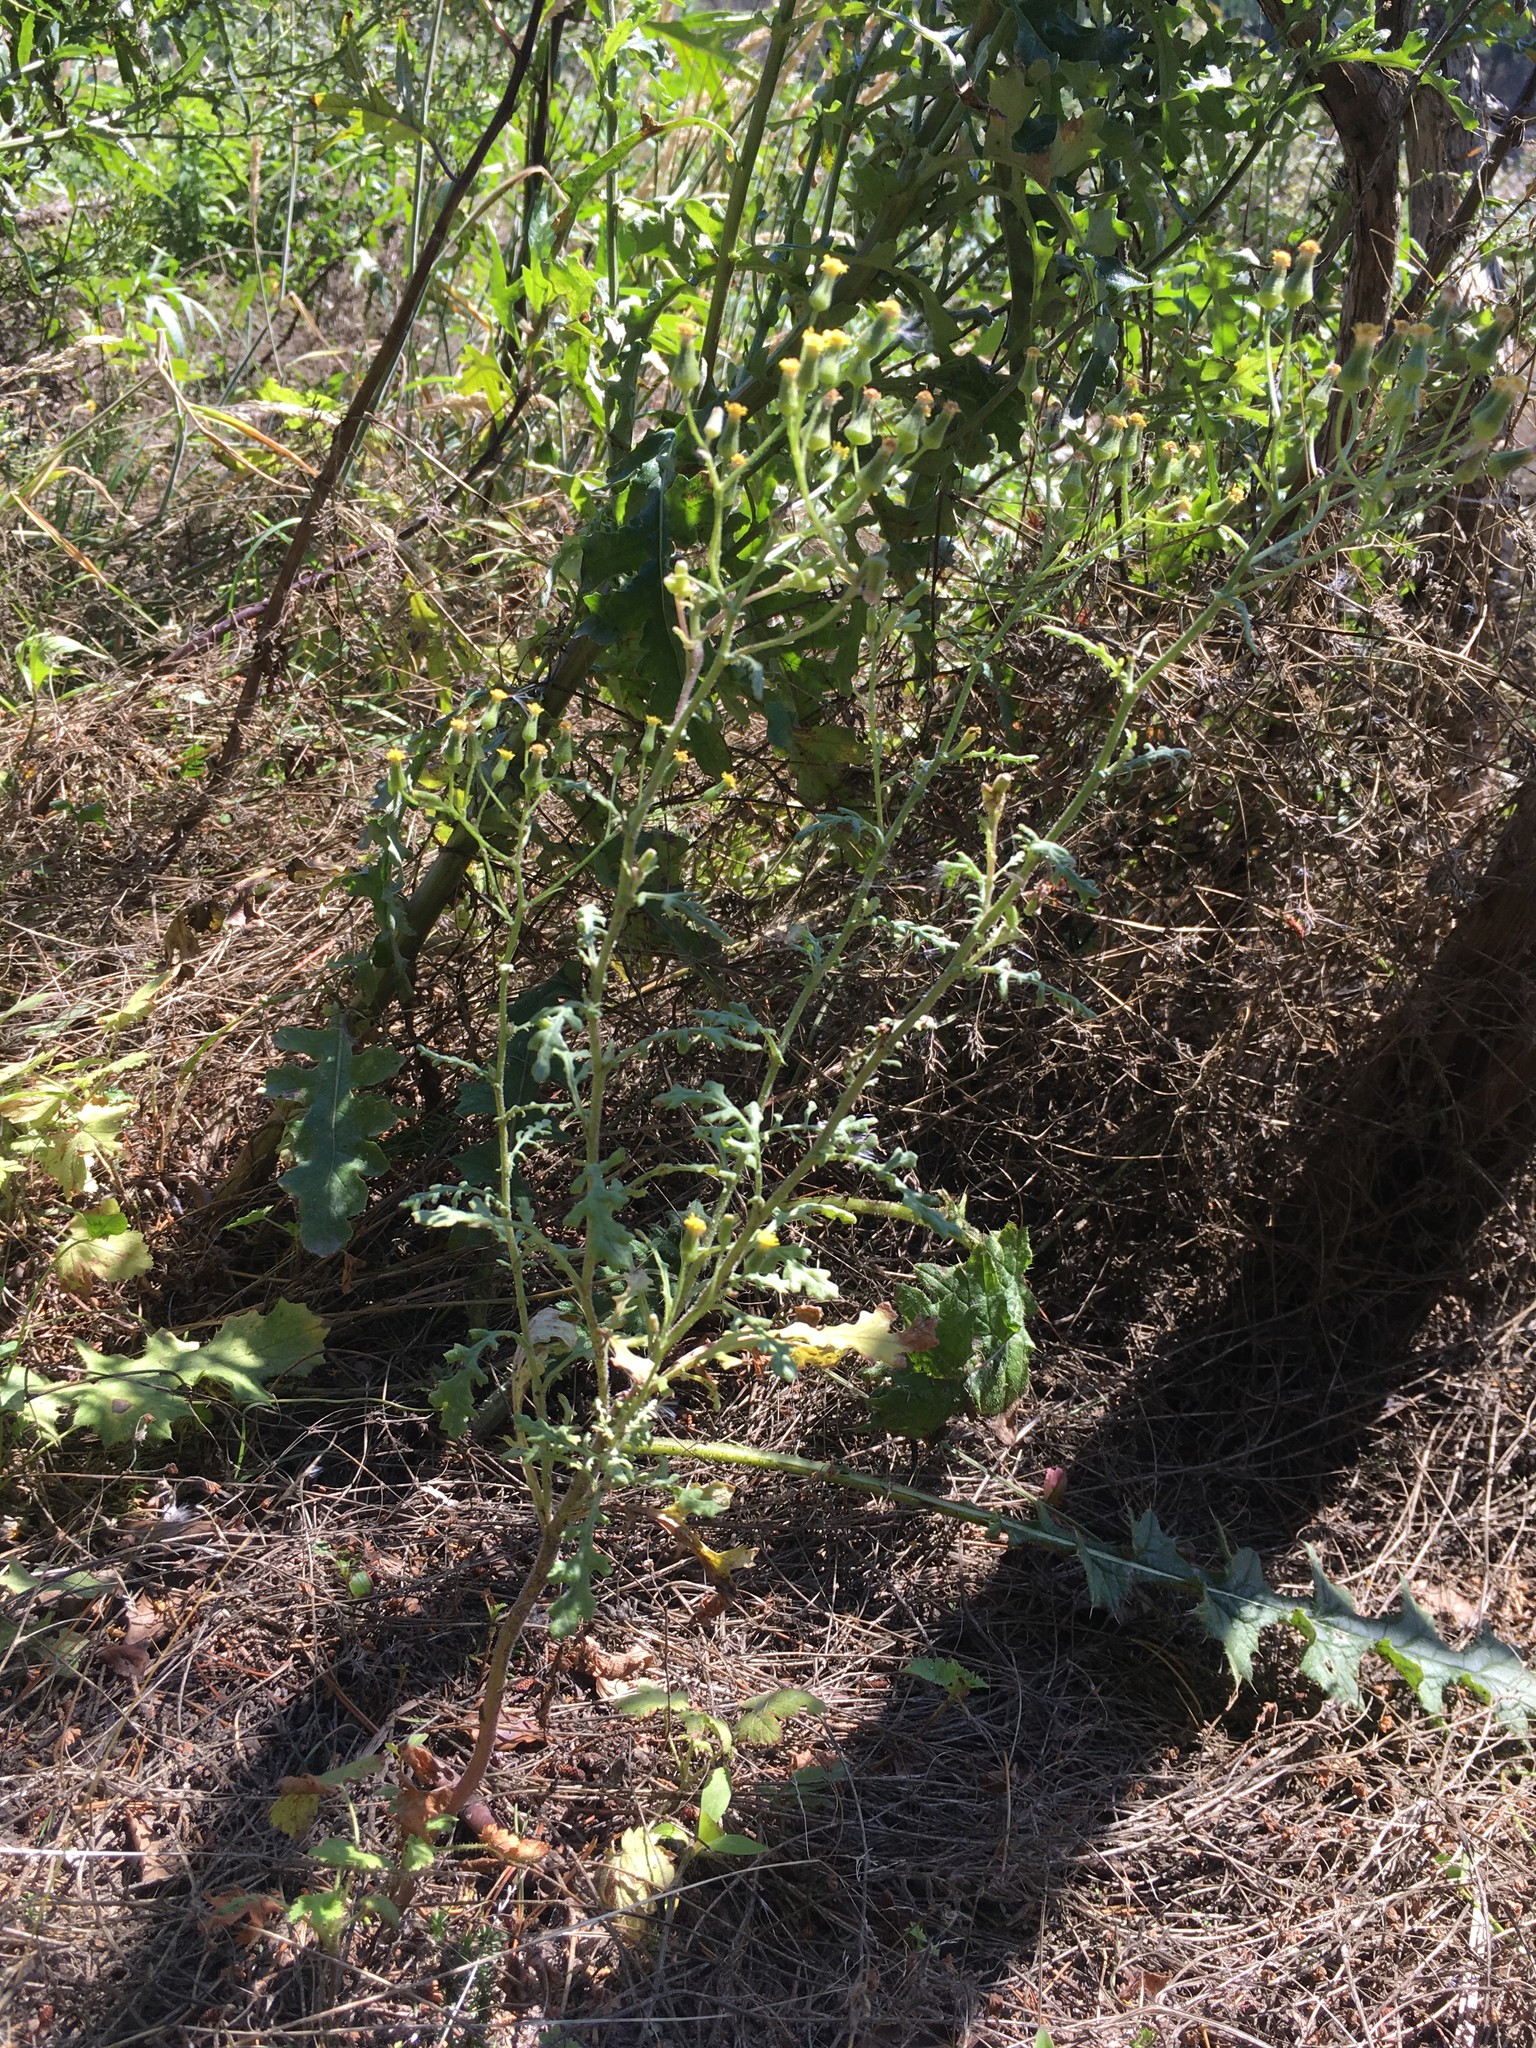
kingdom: Plantae
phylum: Tracheophyta
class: Magnoliopsida
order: Asterales
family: Asteraceae
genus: Senecio
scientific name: Senecio sylvaticus
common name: Woodland ragwort
